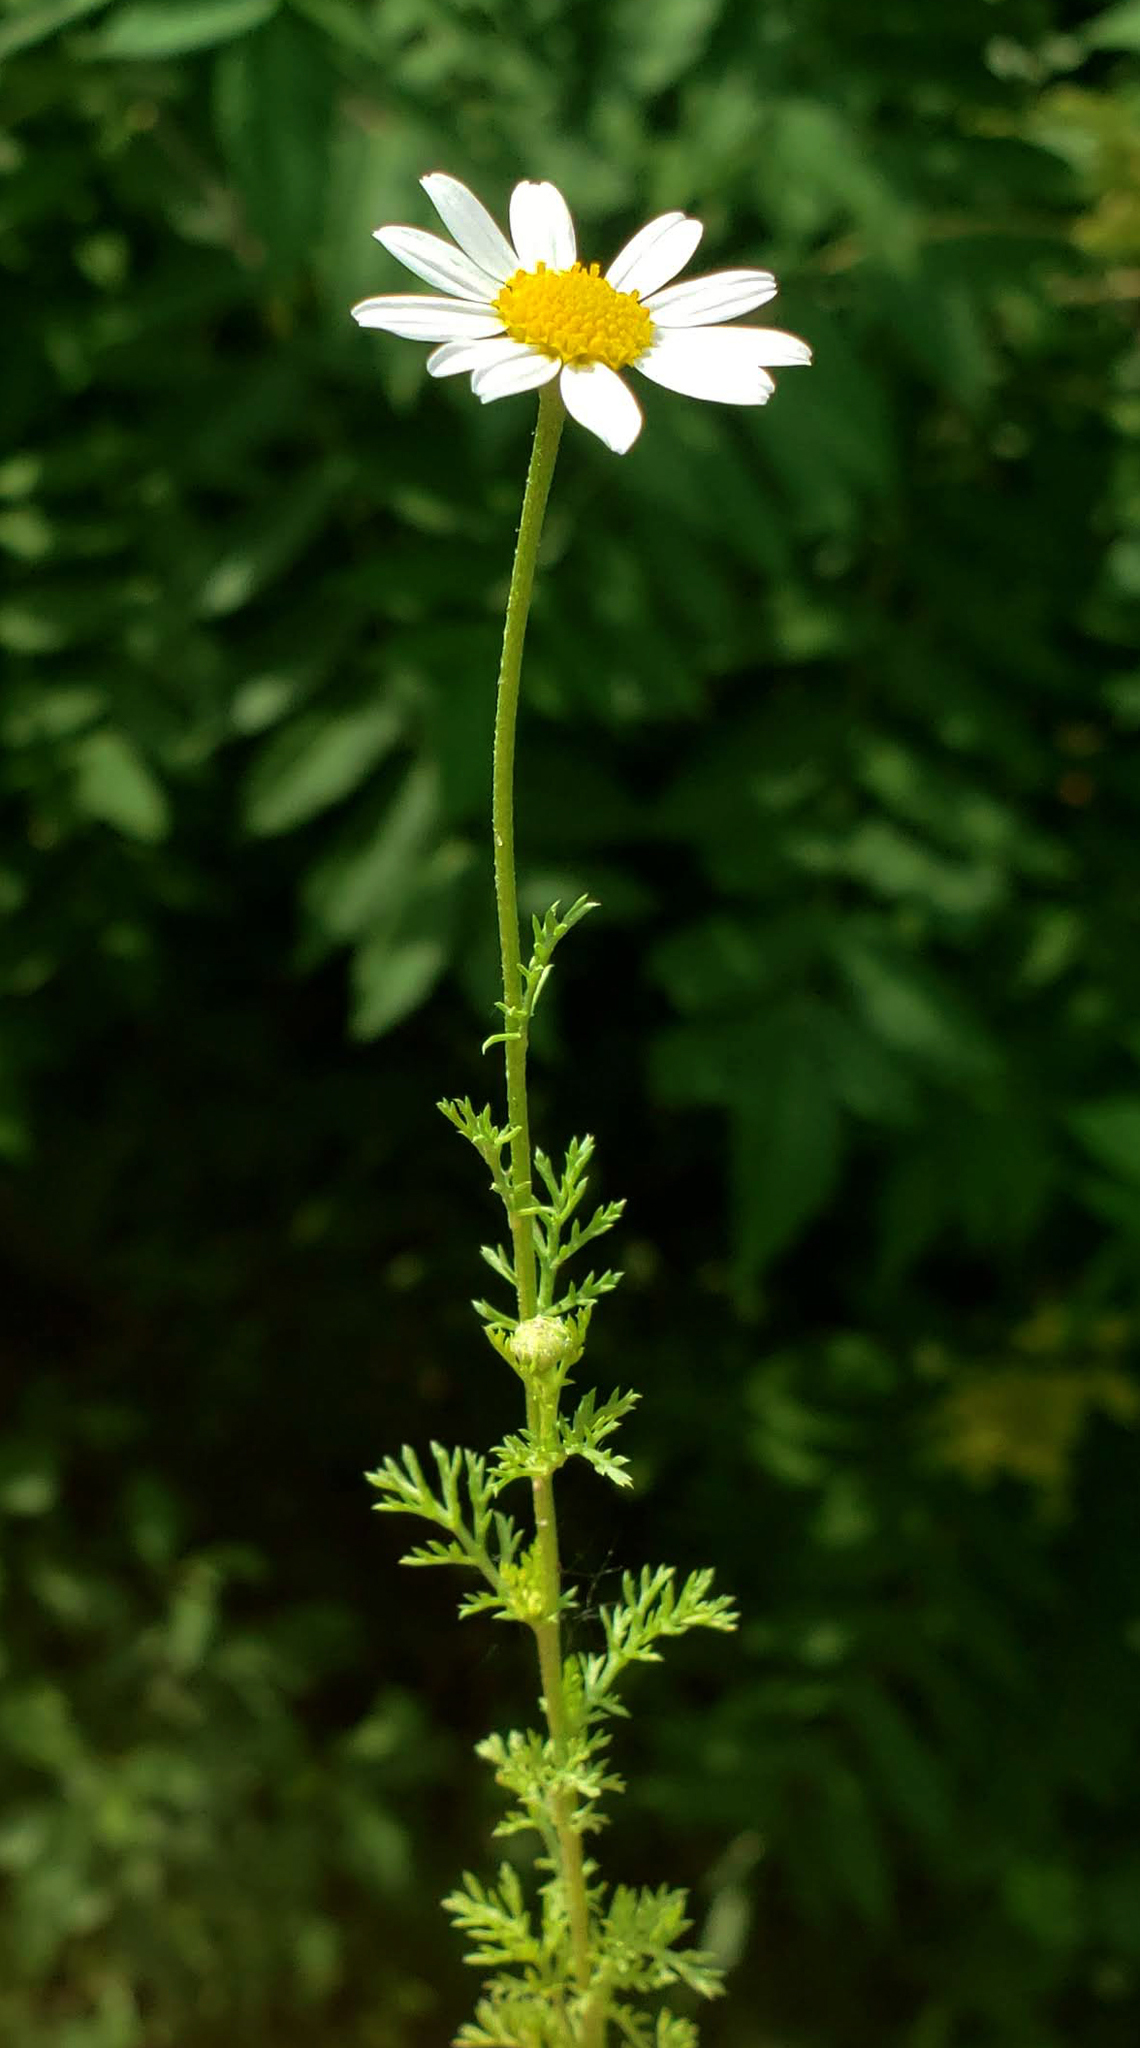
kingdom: Plantae
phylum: Tracheophyta
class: Magnoliopsida
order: Asterales
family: Asteraceae
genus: Anthemis
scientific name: Anthemis cotula
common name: Stinking chamomile
